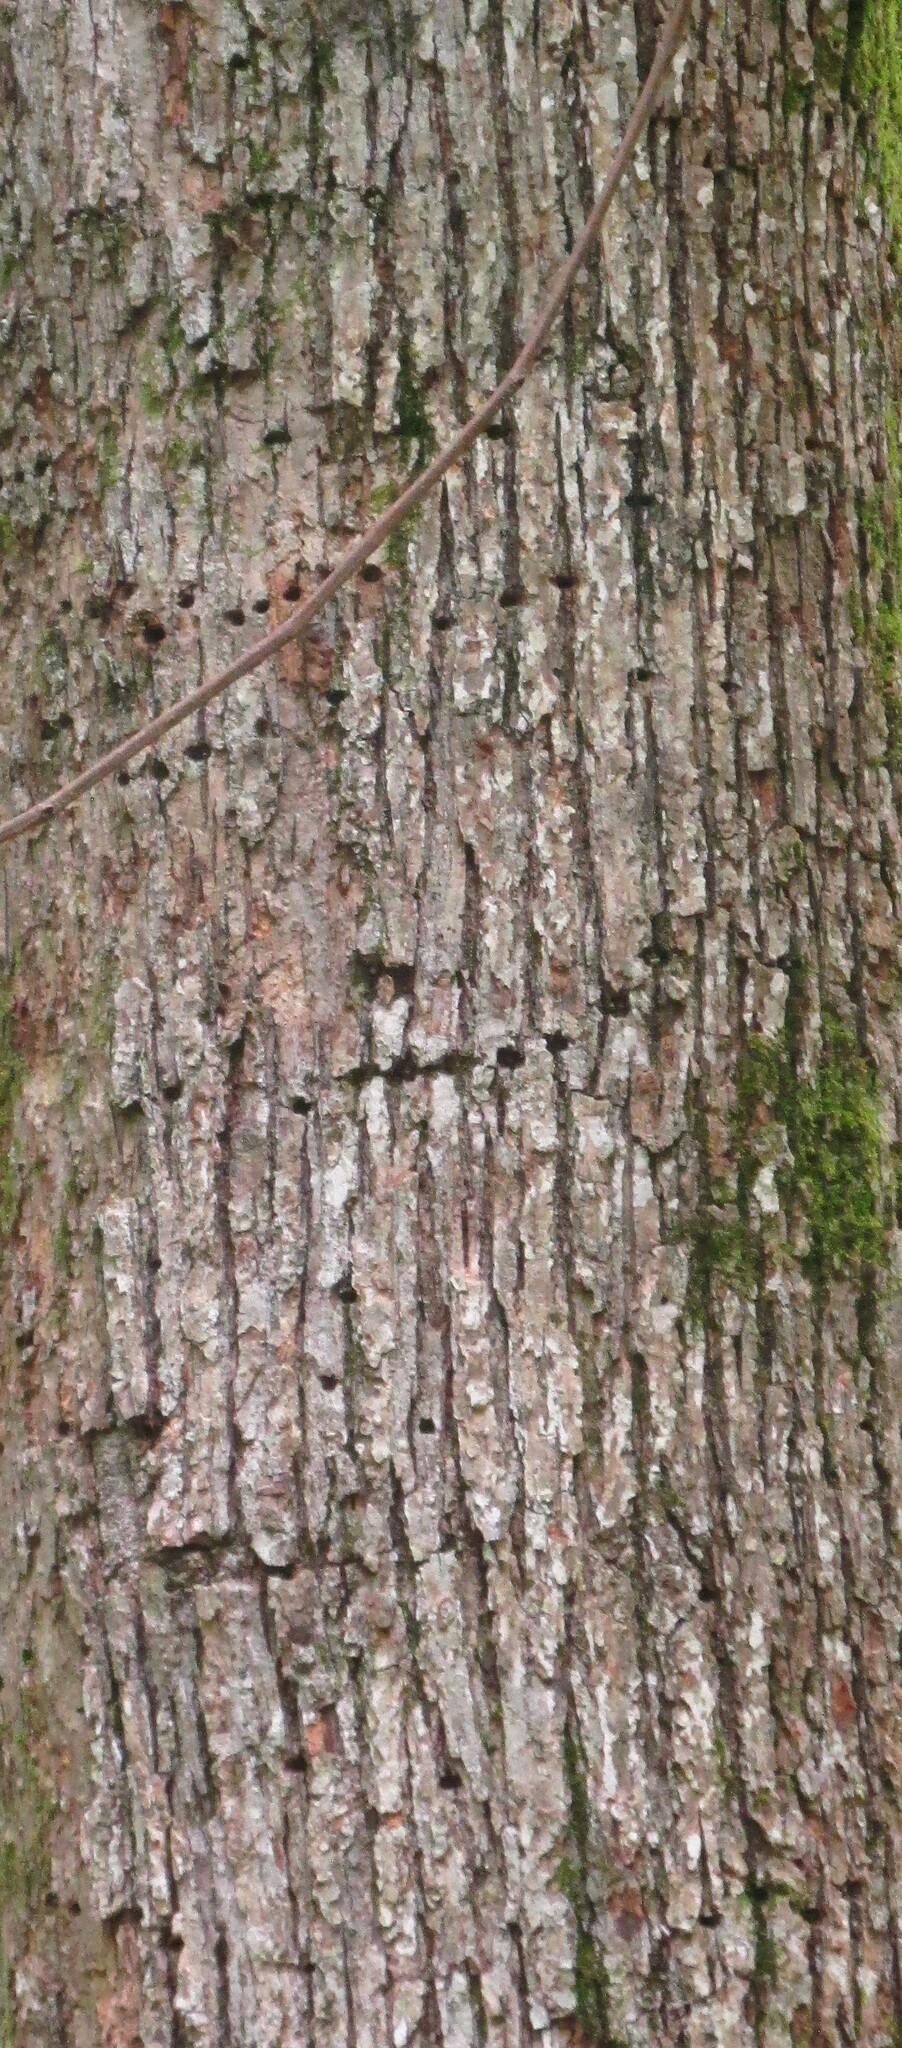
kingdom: Plantae
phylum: Tracheophyta
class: Magnoliopsida
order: Fagales
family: Fagaceae
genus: Quercus
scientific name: Quercus lyrata
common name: Overcup oak
